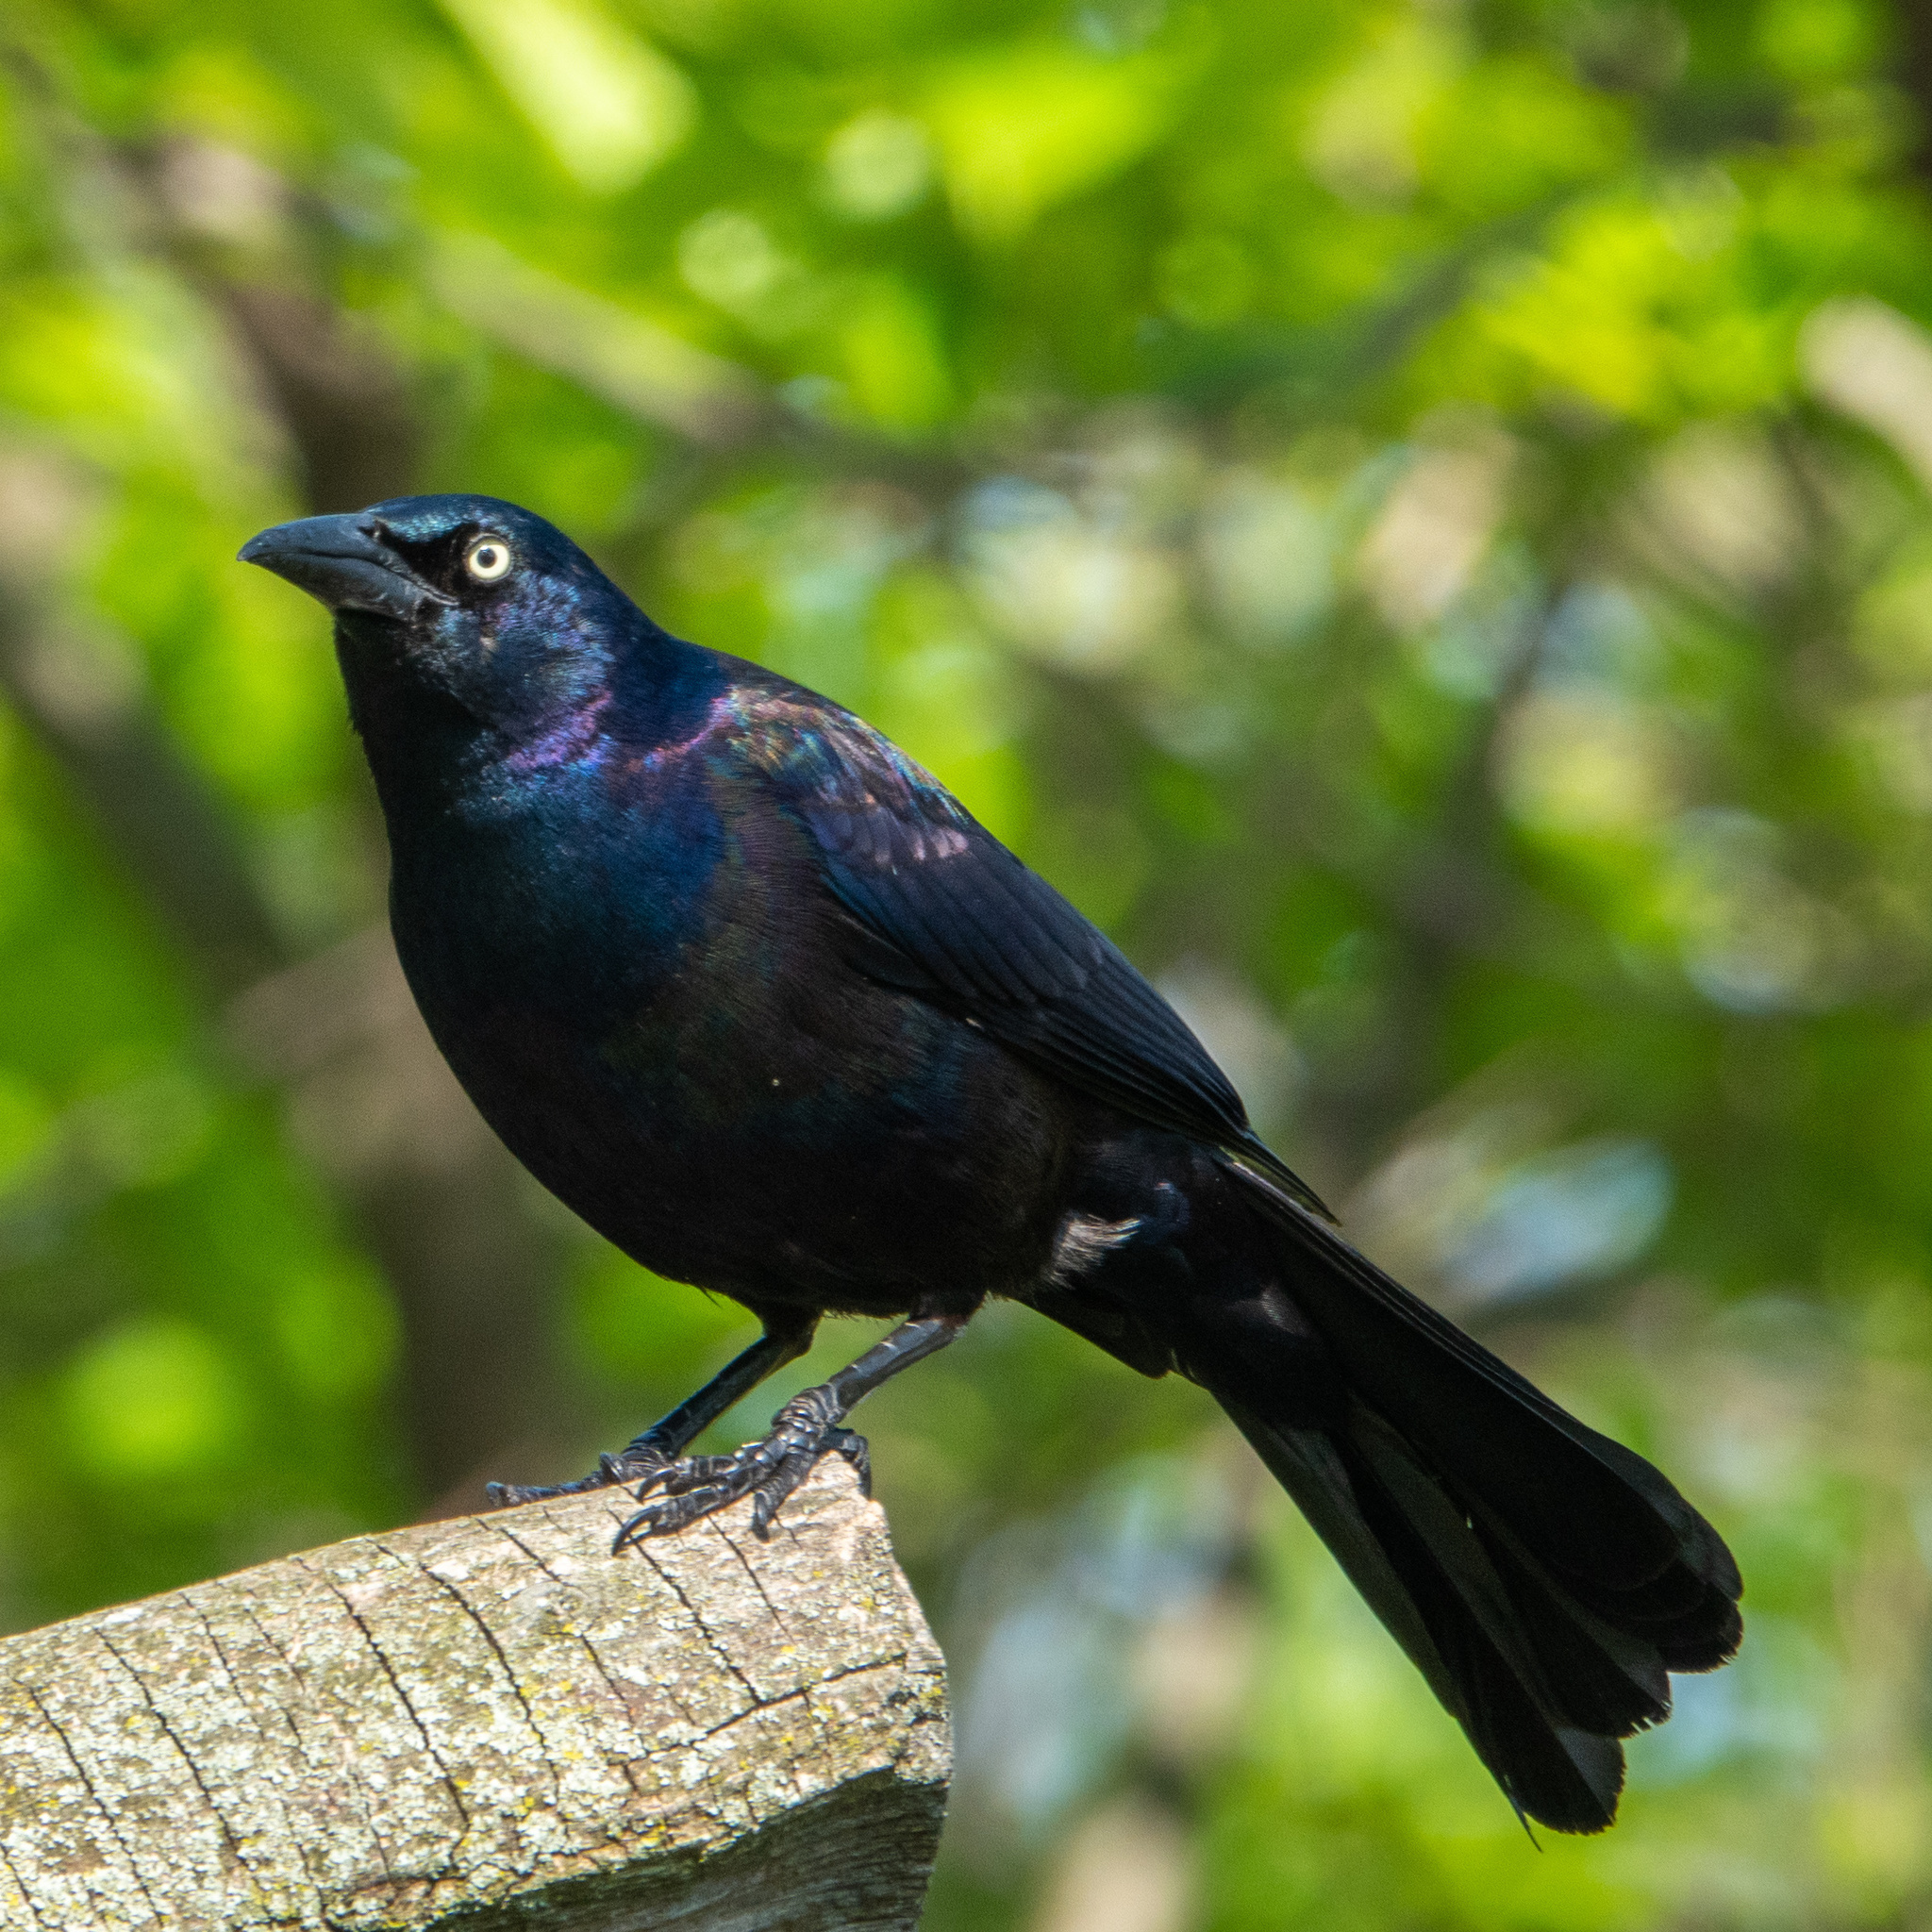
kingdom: Animalia
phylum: Chordata
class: Aves
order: Passeriformes
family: Icteridae
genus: Quiscalus
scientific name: Quiscalus quiscula
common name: Common grackle
